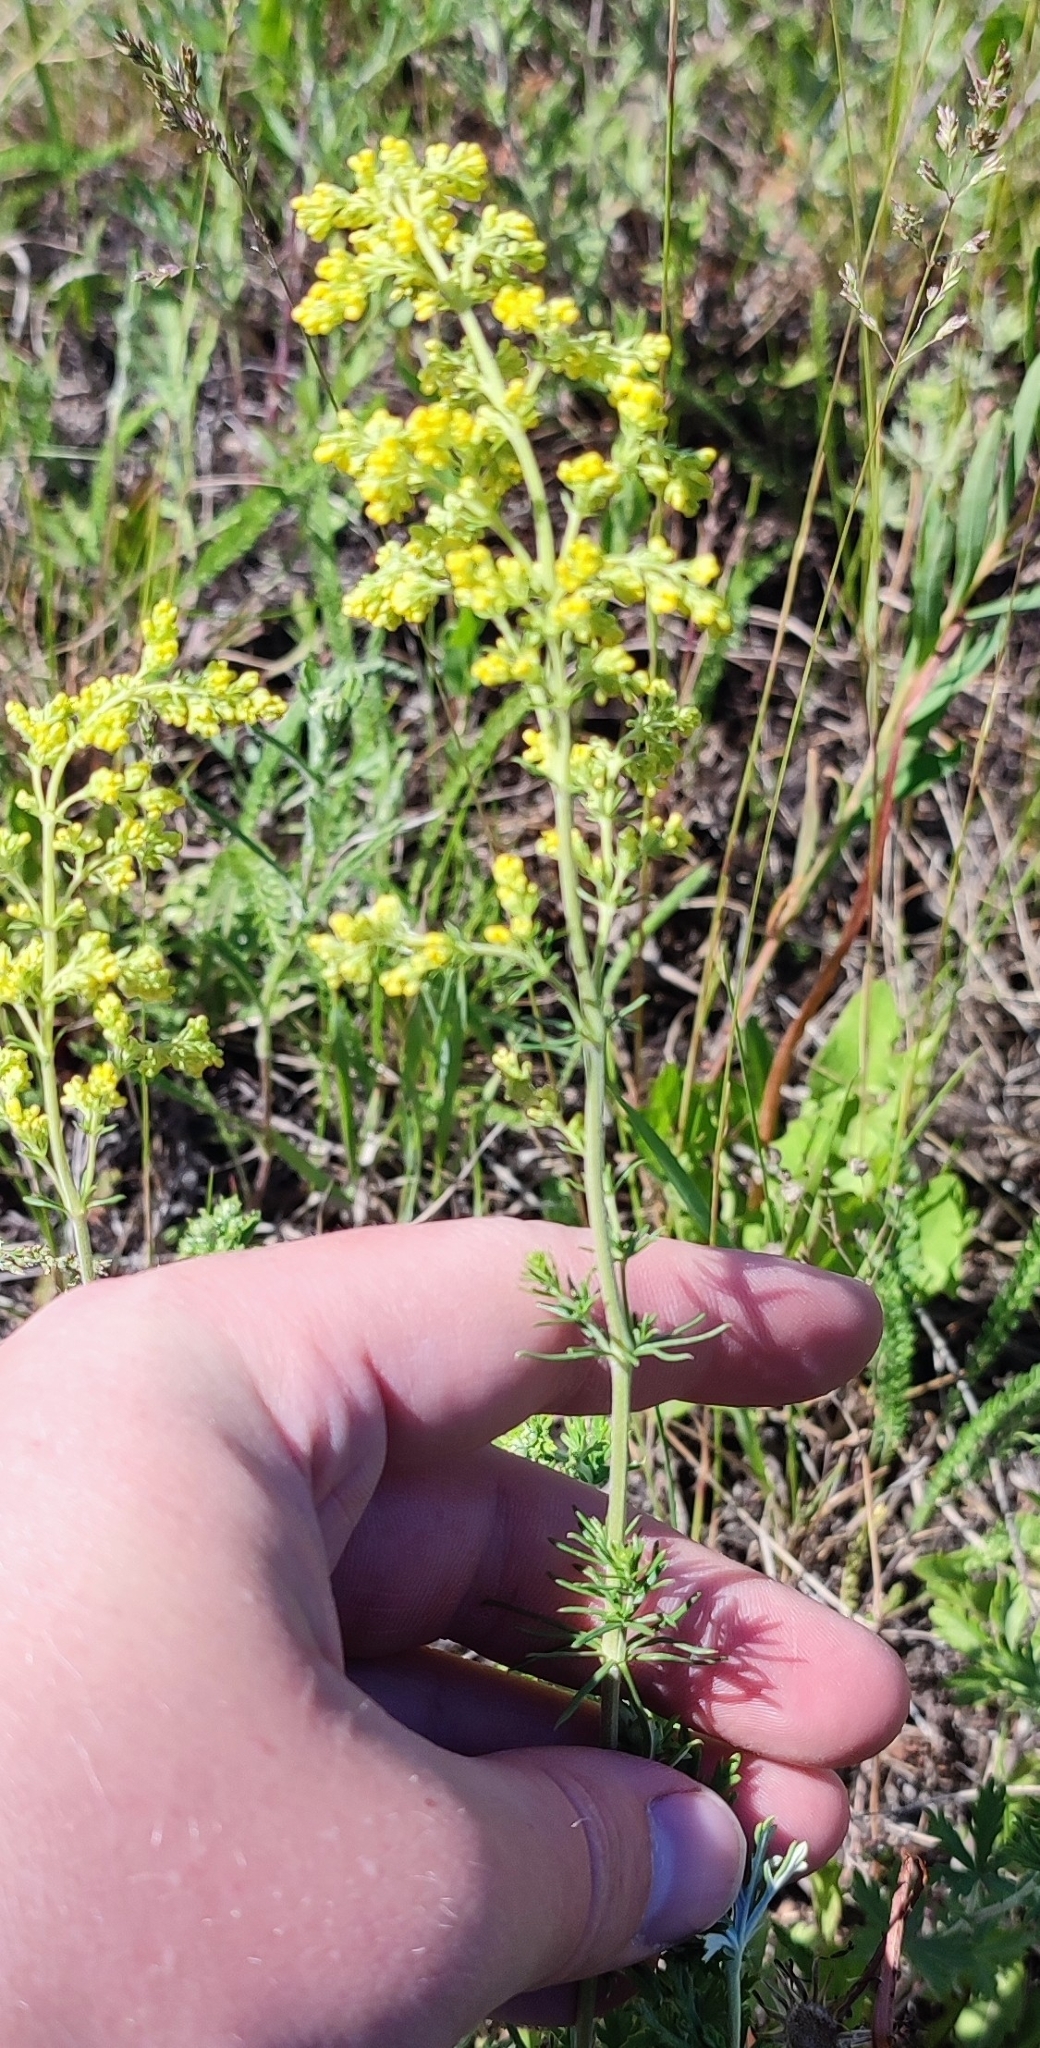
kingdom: Plantae
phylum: Tracheophyta
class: Magnoliopsida
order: Gentianales
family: Rubiaceae
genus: Galium
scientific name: Galium verum
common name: Lady's bedstraw
